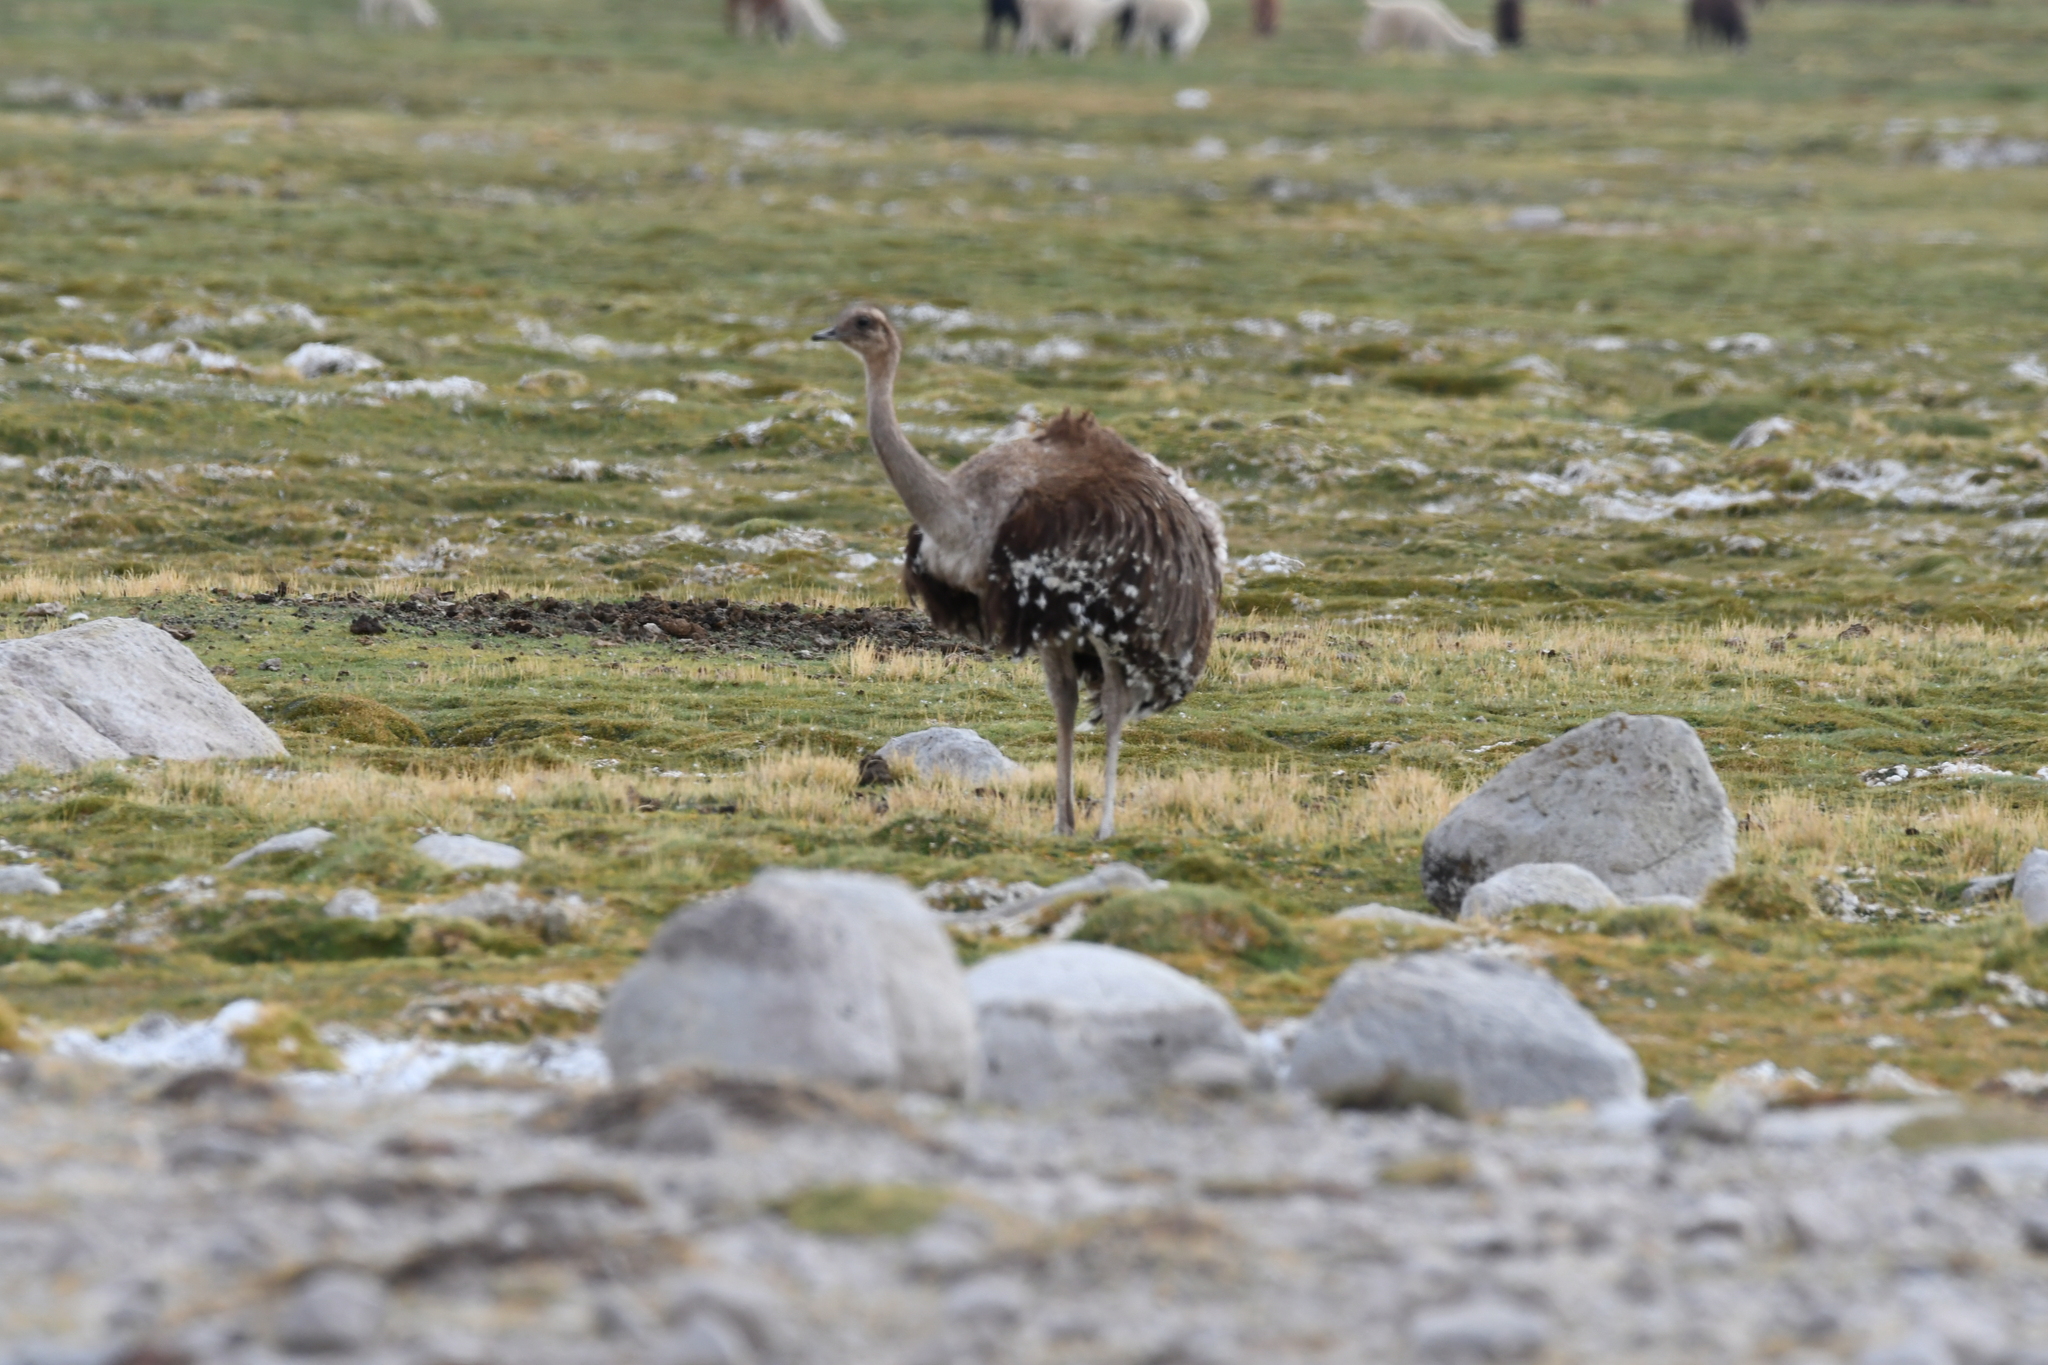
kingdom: Animalia
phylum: Chordata
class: Aves
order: Rheiformes
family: Rheidae
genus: Rhea
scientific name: Rhea pennata
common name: Lesser rhea
